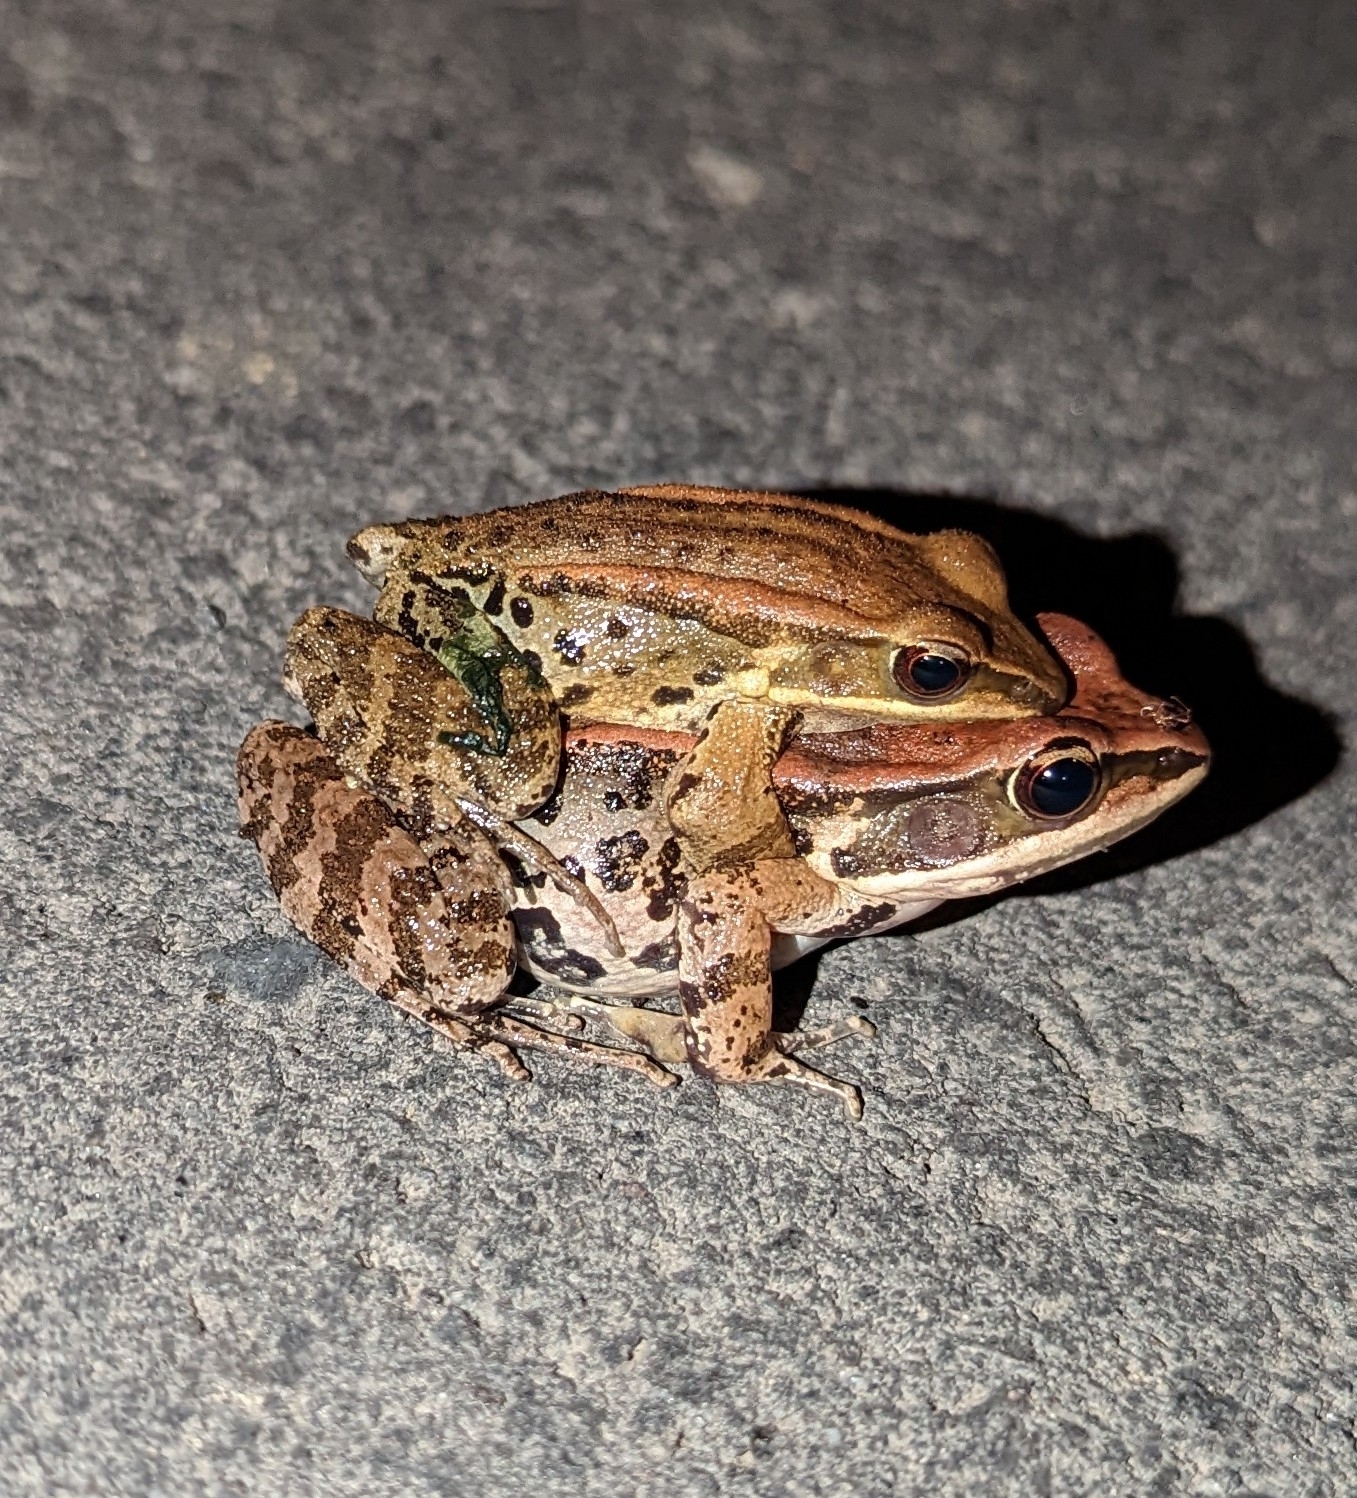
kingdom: Animalia
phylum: Chordata
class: Amphibia
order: Anura
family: Ranidae
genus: Hylarana
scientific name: Hylarana latouchii
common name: Broad-folded frog
